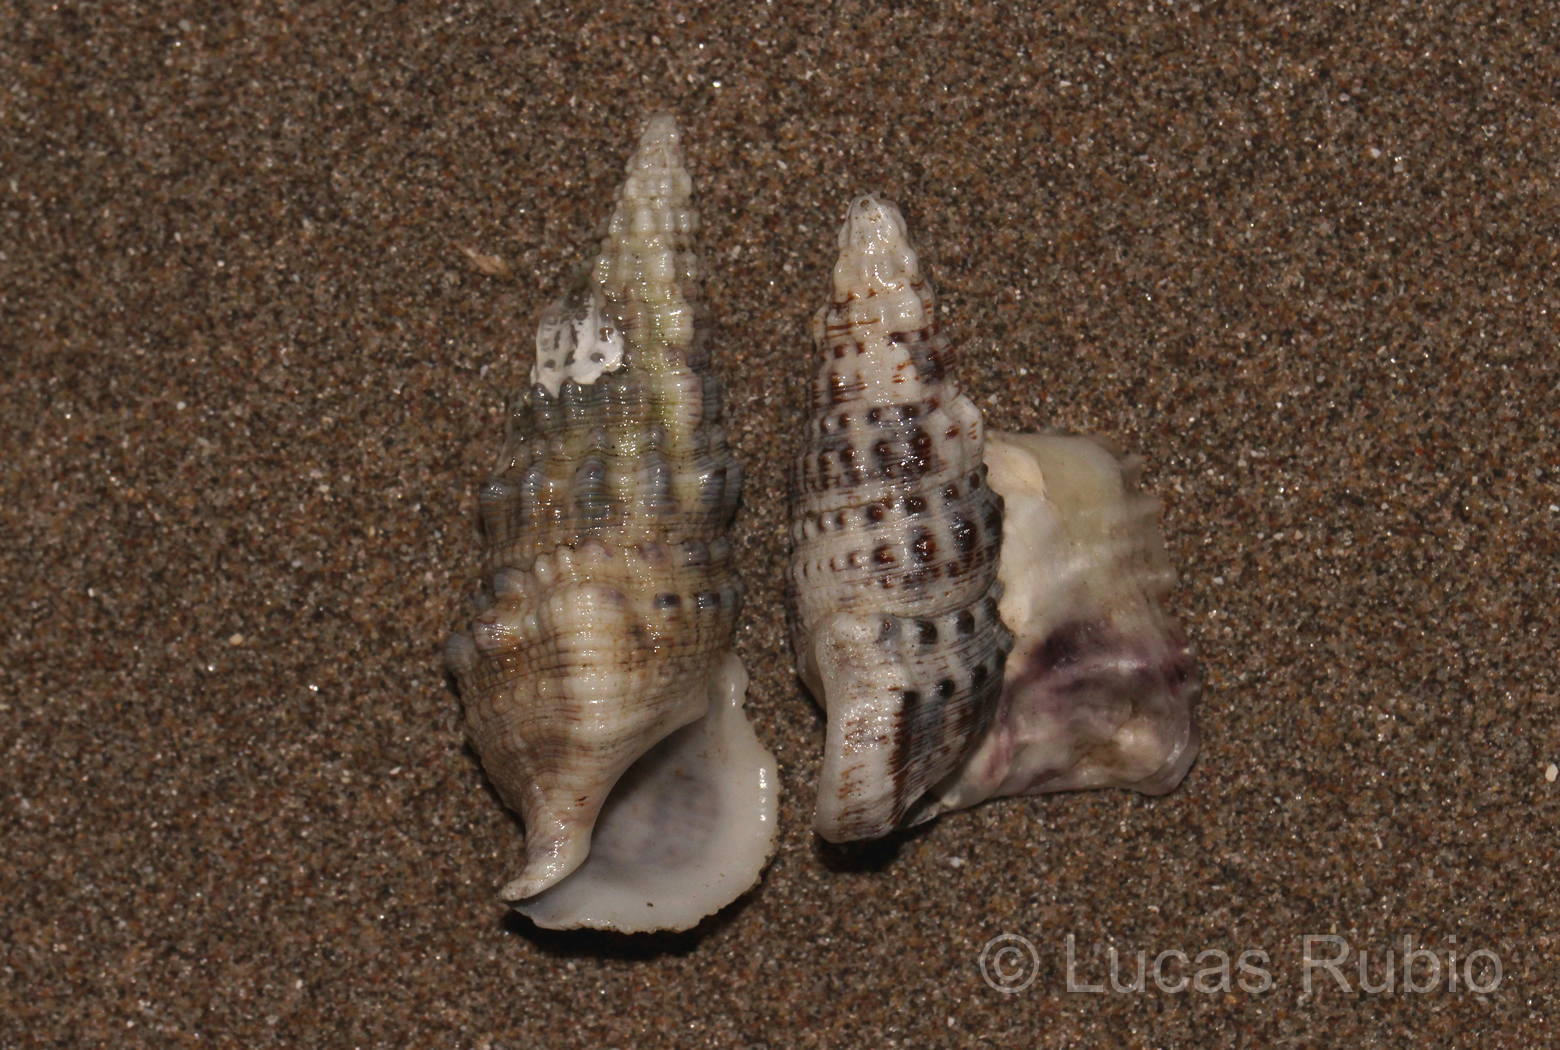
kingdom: Animalia
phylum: Mollusca
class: Gastropoda
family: Cerithiidae
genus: Cerithium
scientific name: Cerithium atratum
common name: Dark cerith
